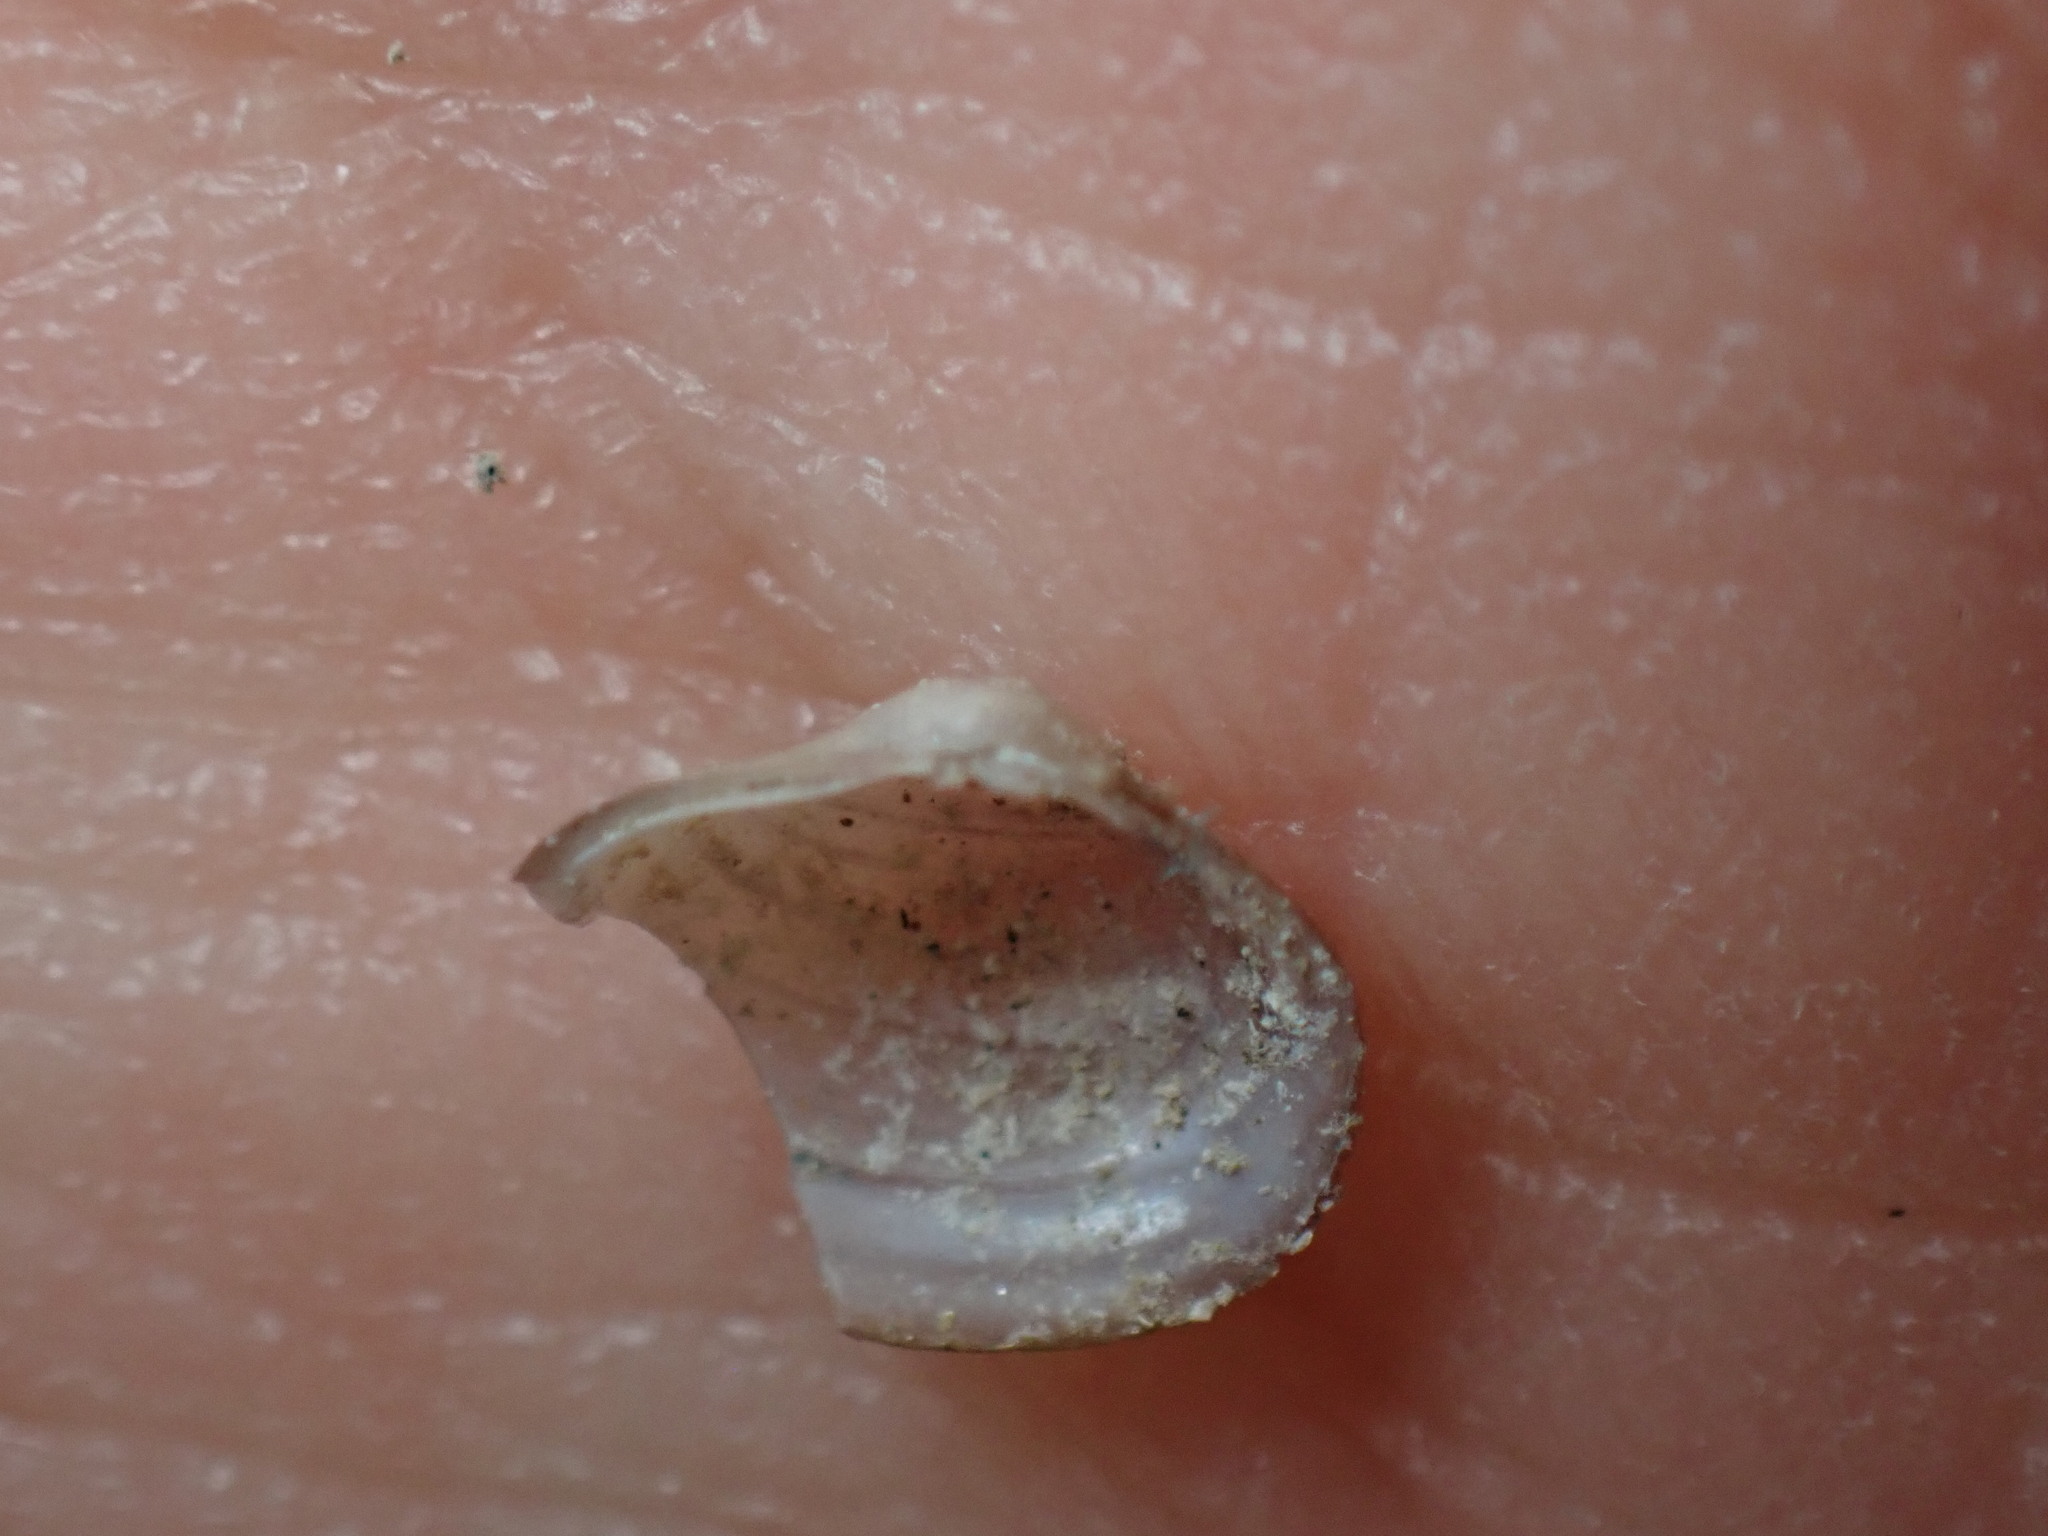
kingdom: Animalia
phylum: Mollusca
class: Bivalvia
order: Venerida
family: Cyrenidae
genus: Corbicula
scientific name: Corbicula fluminea
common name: Asian clam
